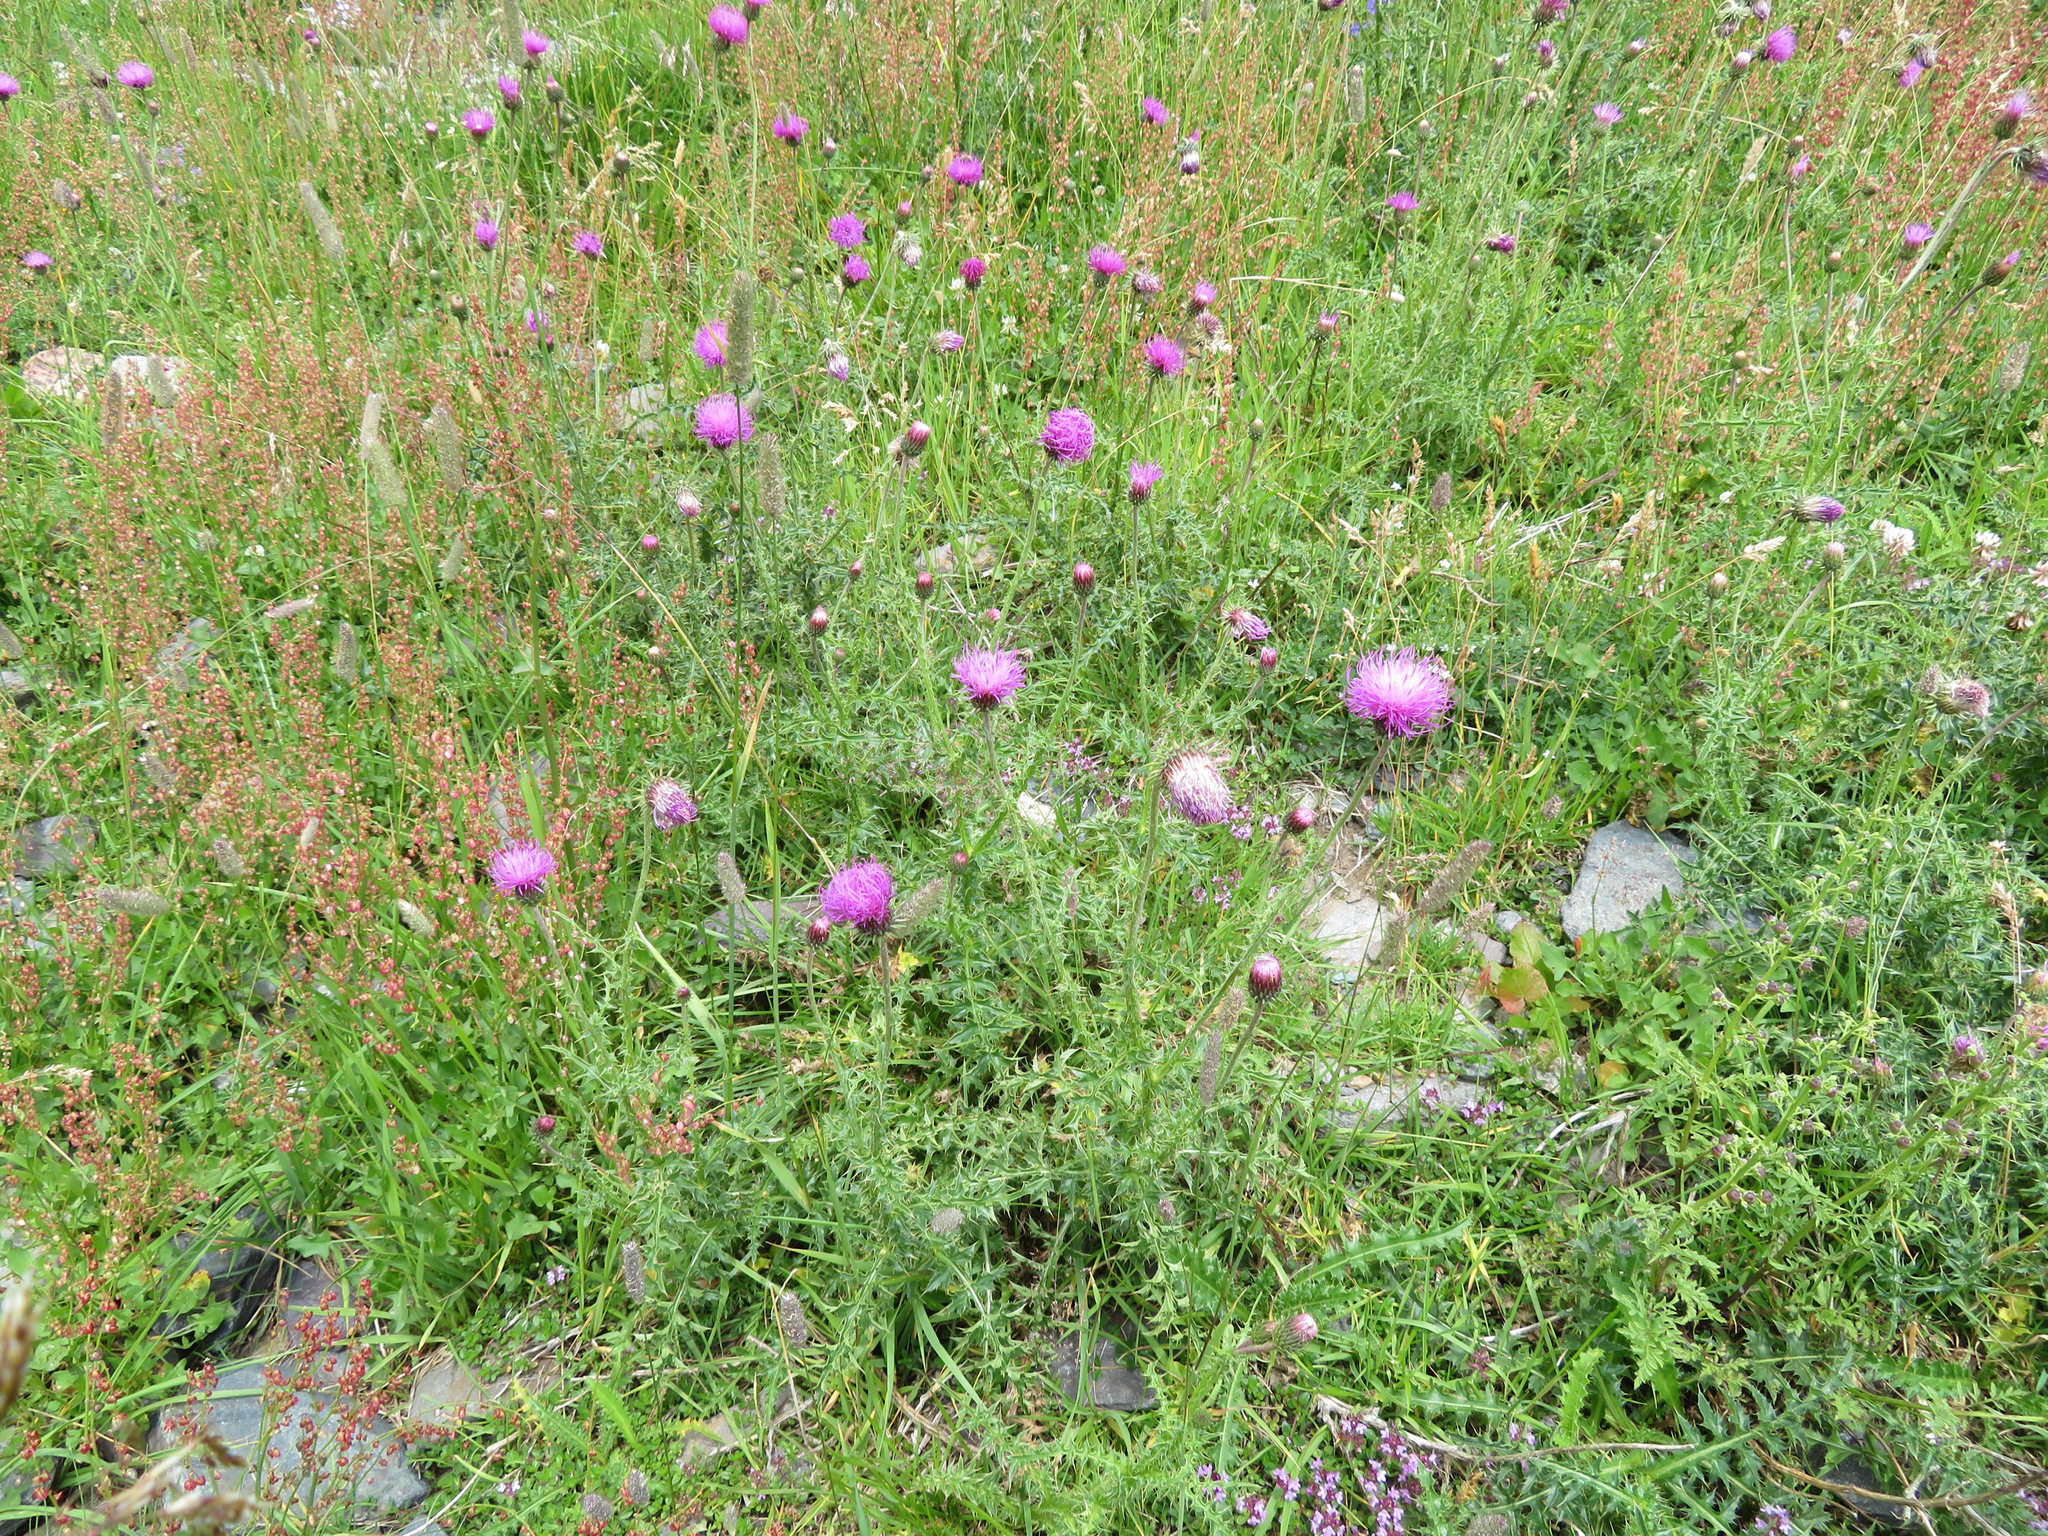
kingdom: Plantae
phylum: Tracheophyta
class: Magnoliopsida
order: Asterales
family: Asteraceae
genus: Carduus
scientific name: Carduus defloratus
